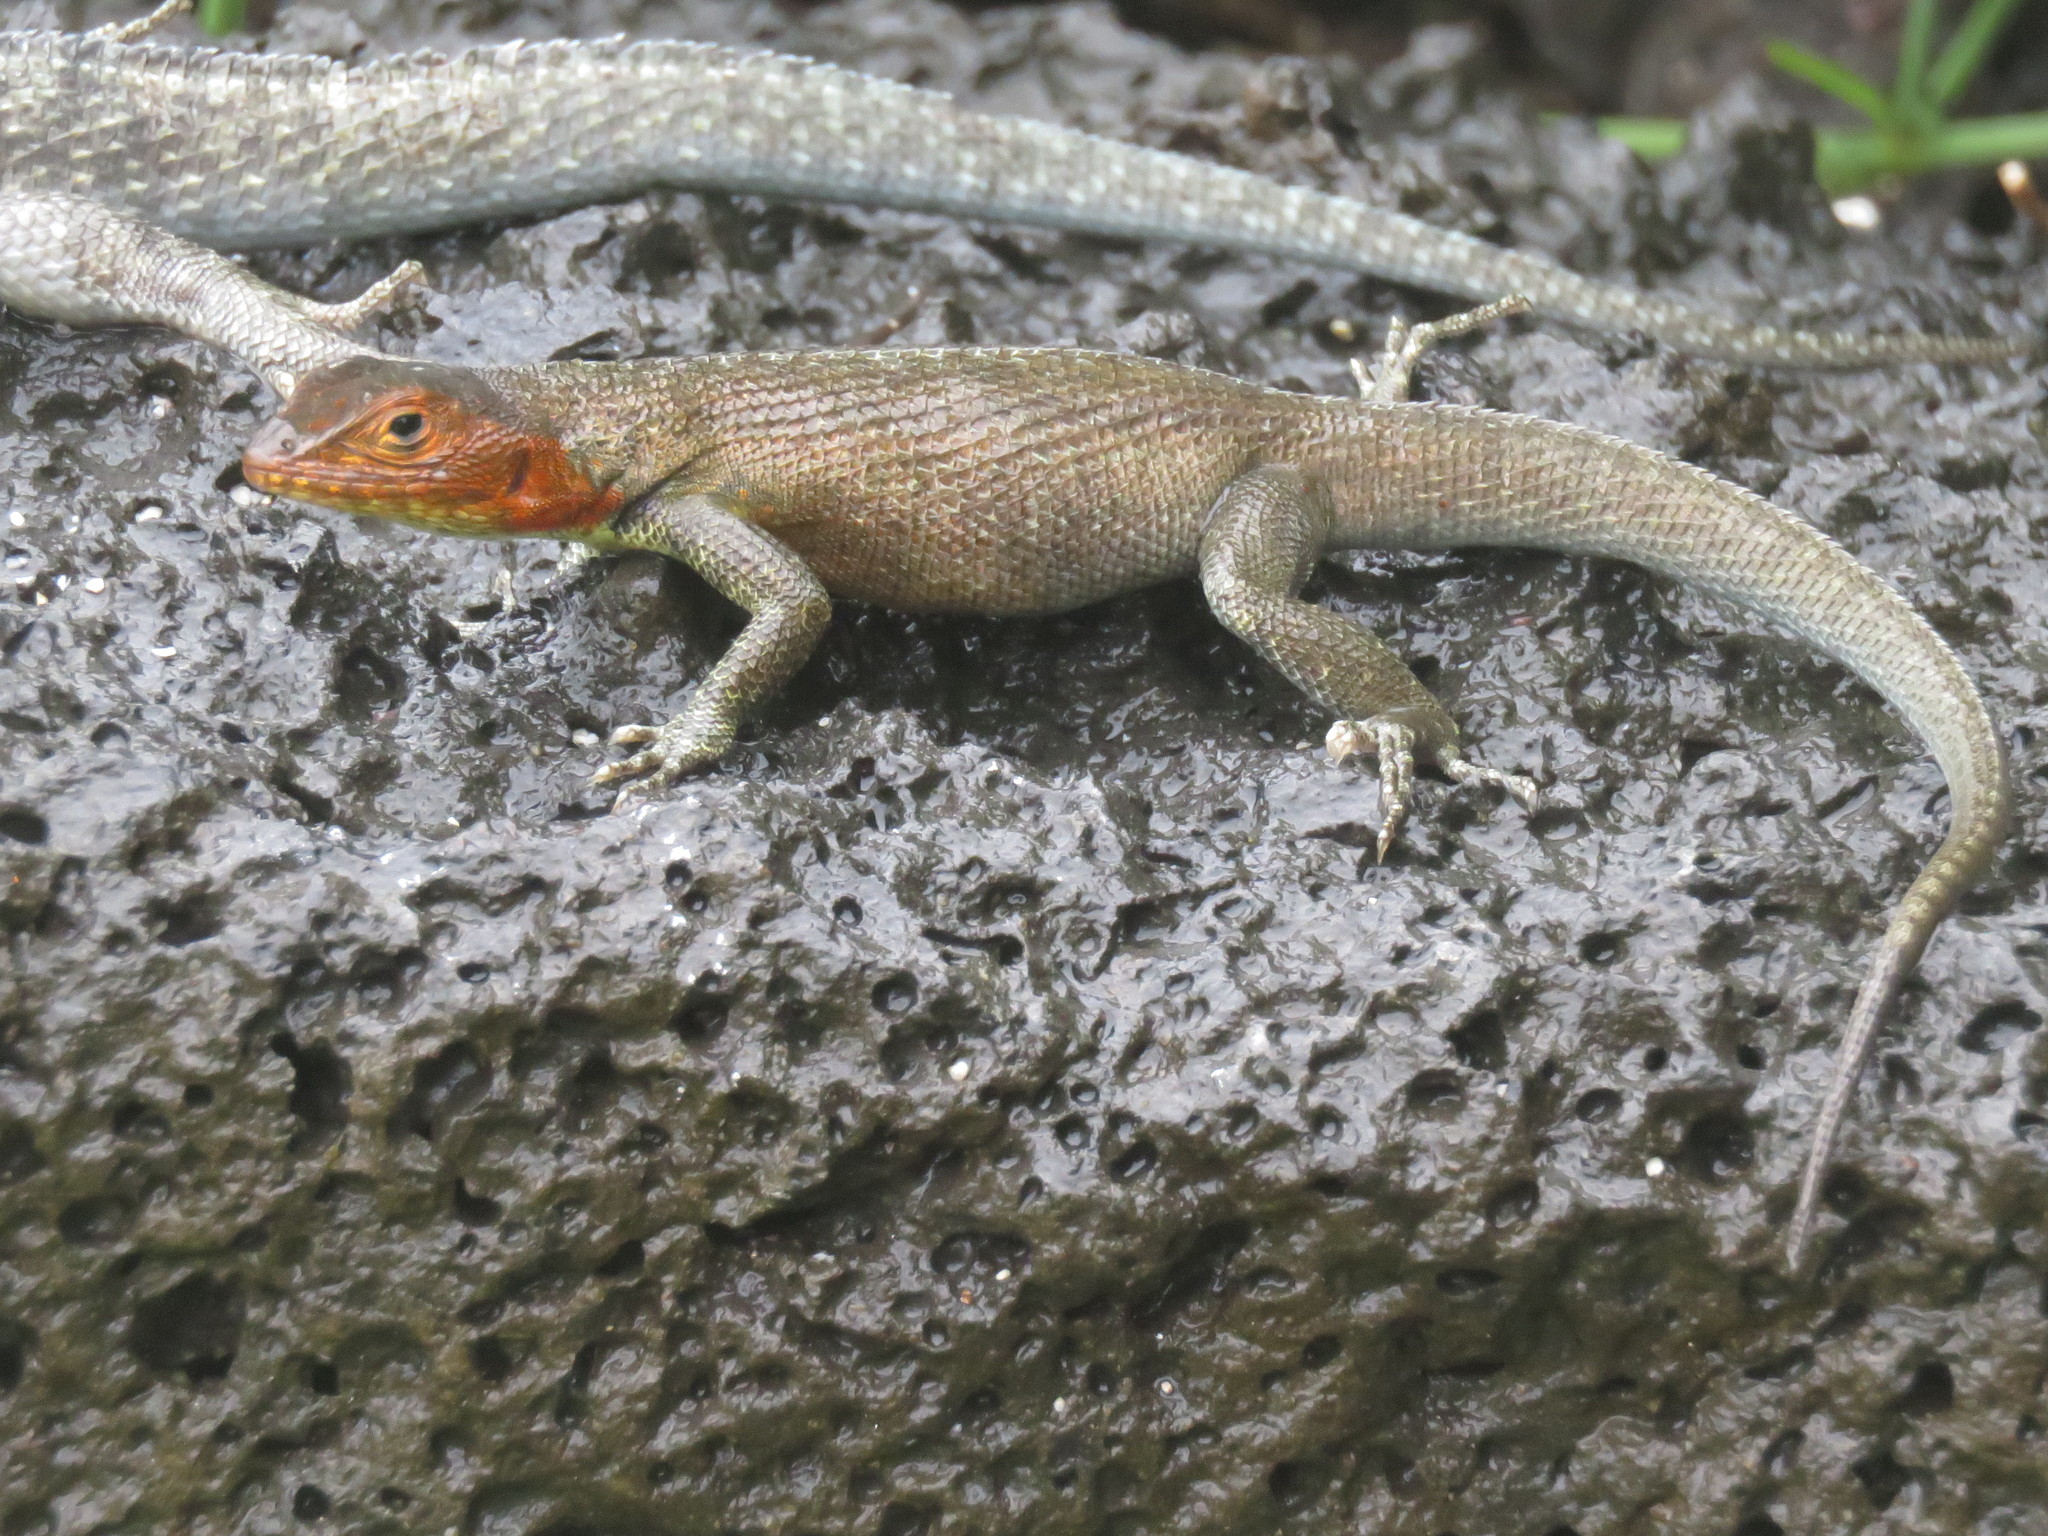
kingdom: Animalia
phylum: Chordata
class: Squamata
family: Tropiduridae
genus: Microlophus
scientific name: Microlophus indefatigabilis
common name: Galapagos lava lizard
